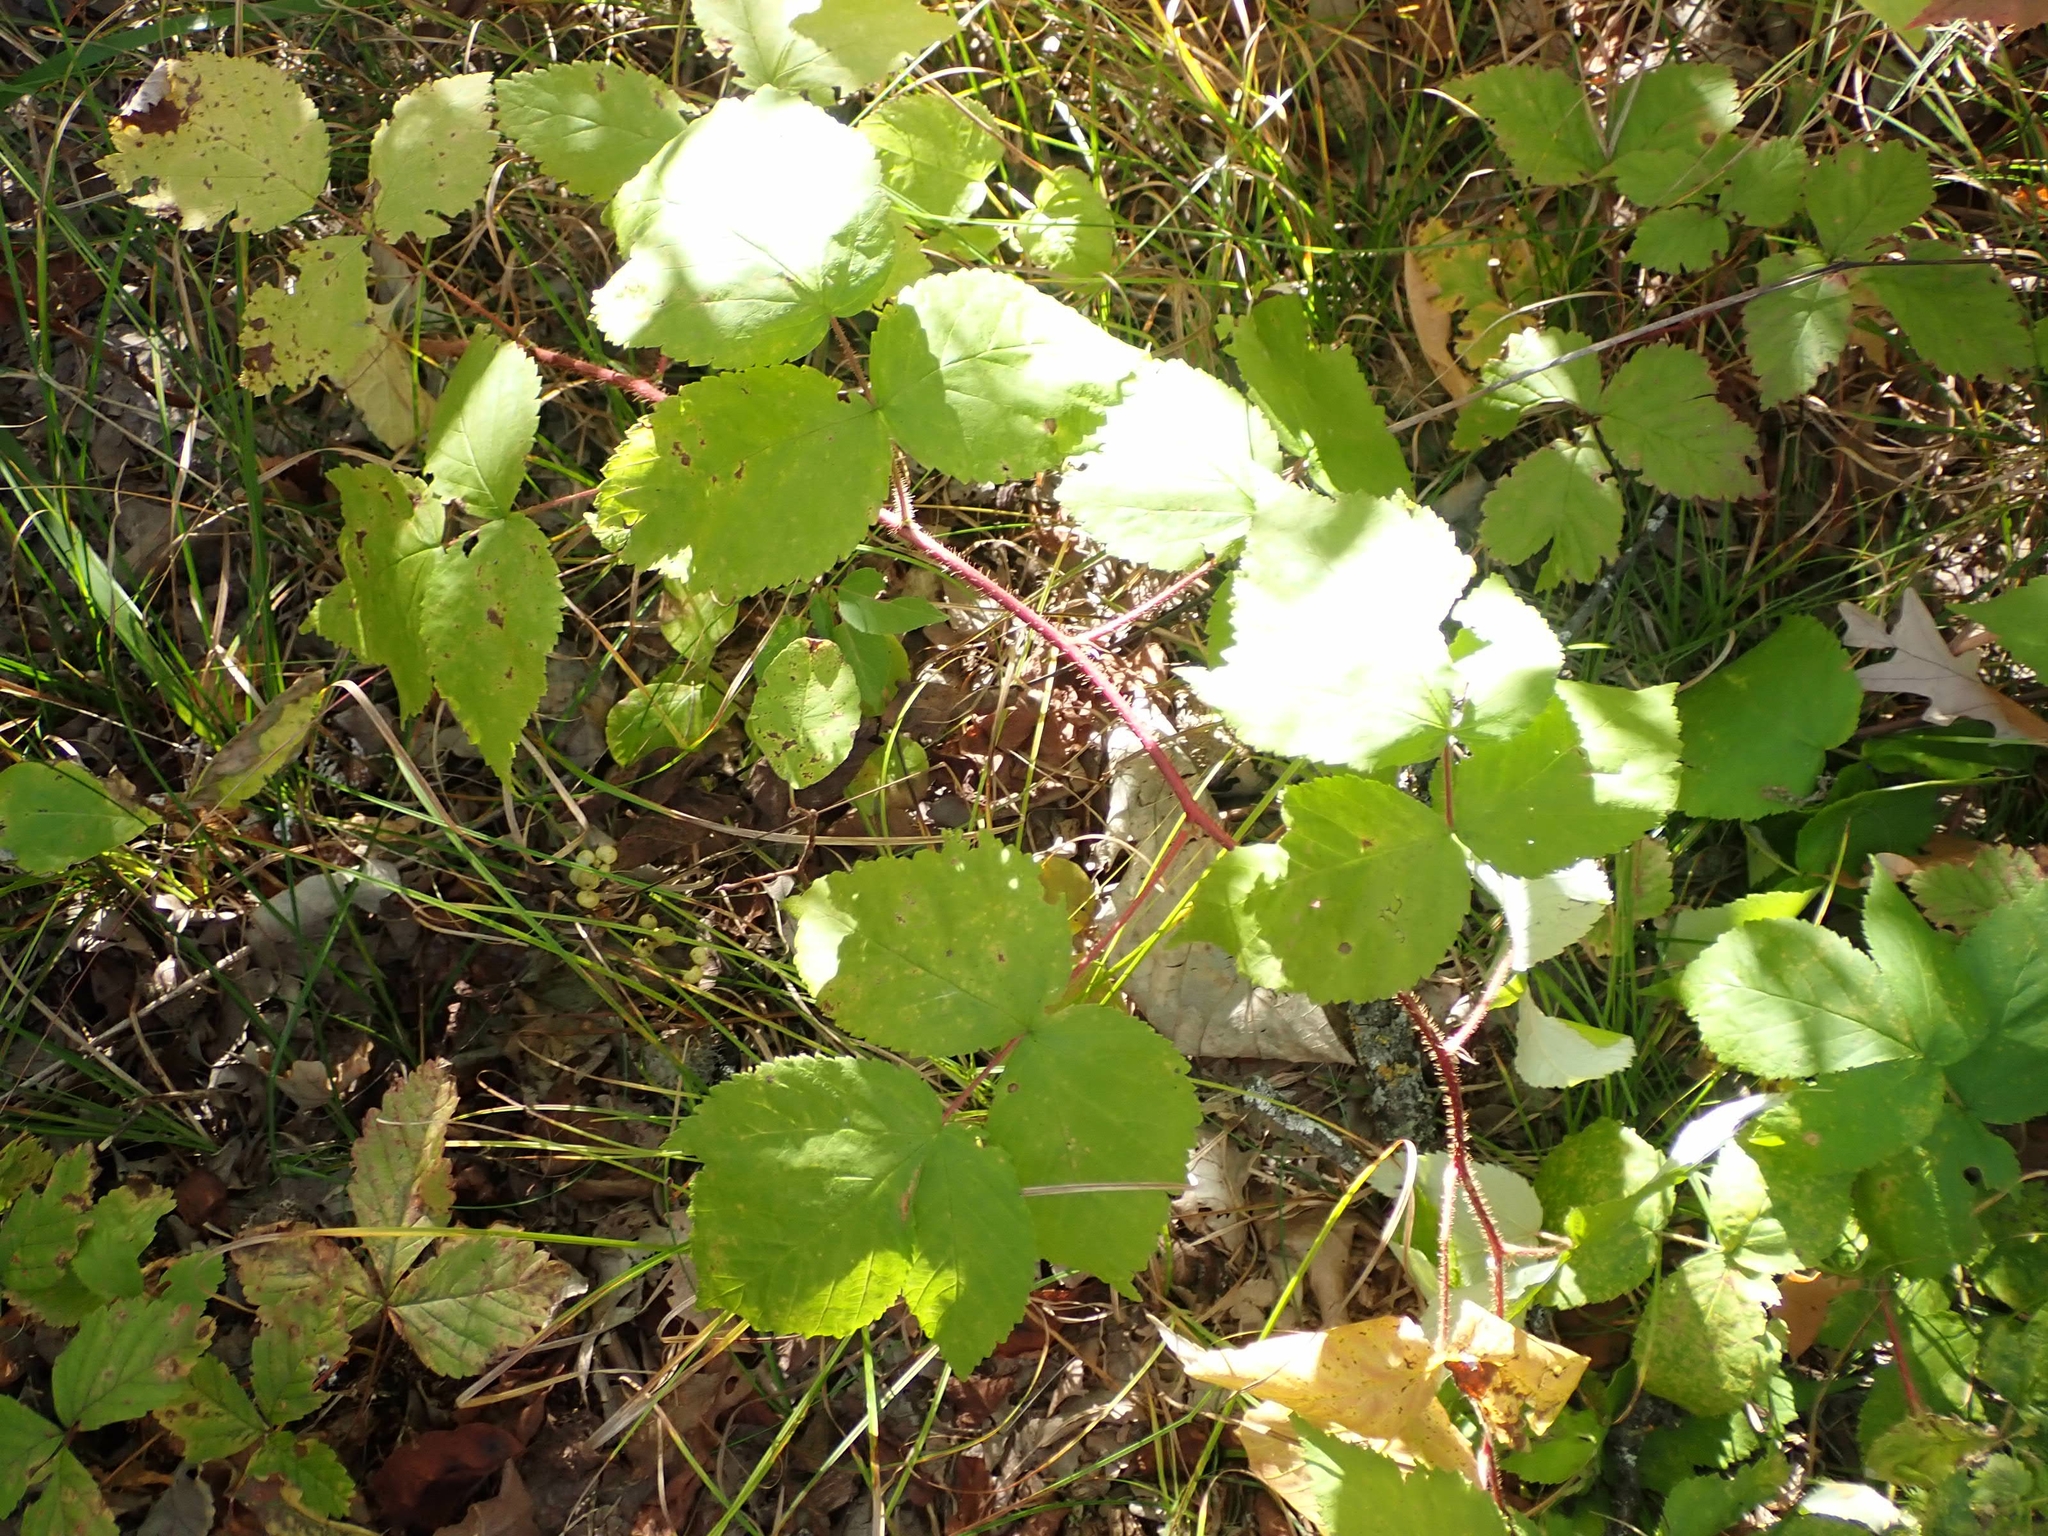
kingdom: Plantae
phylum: Tracheophyta
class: Magnoliopsida
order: Rosales
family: Rosaceae
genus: Rubus
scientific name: Rubus idaeus
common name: Raspberry
